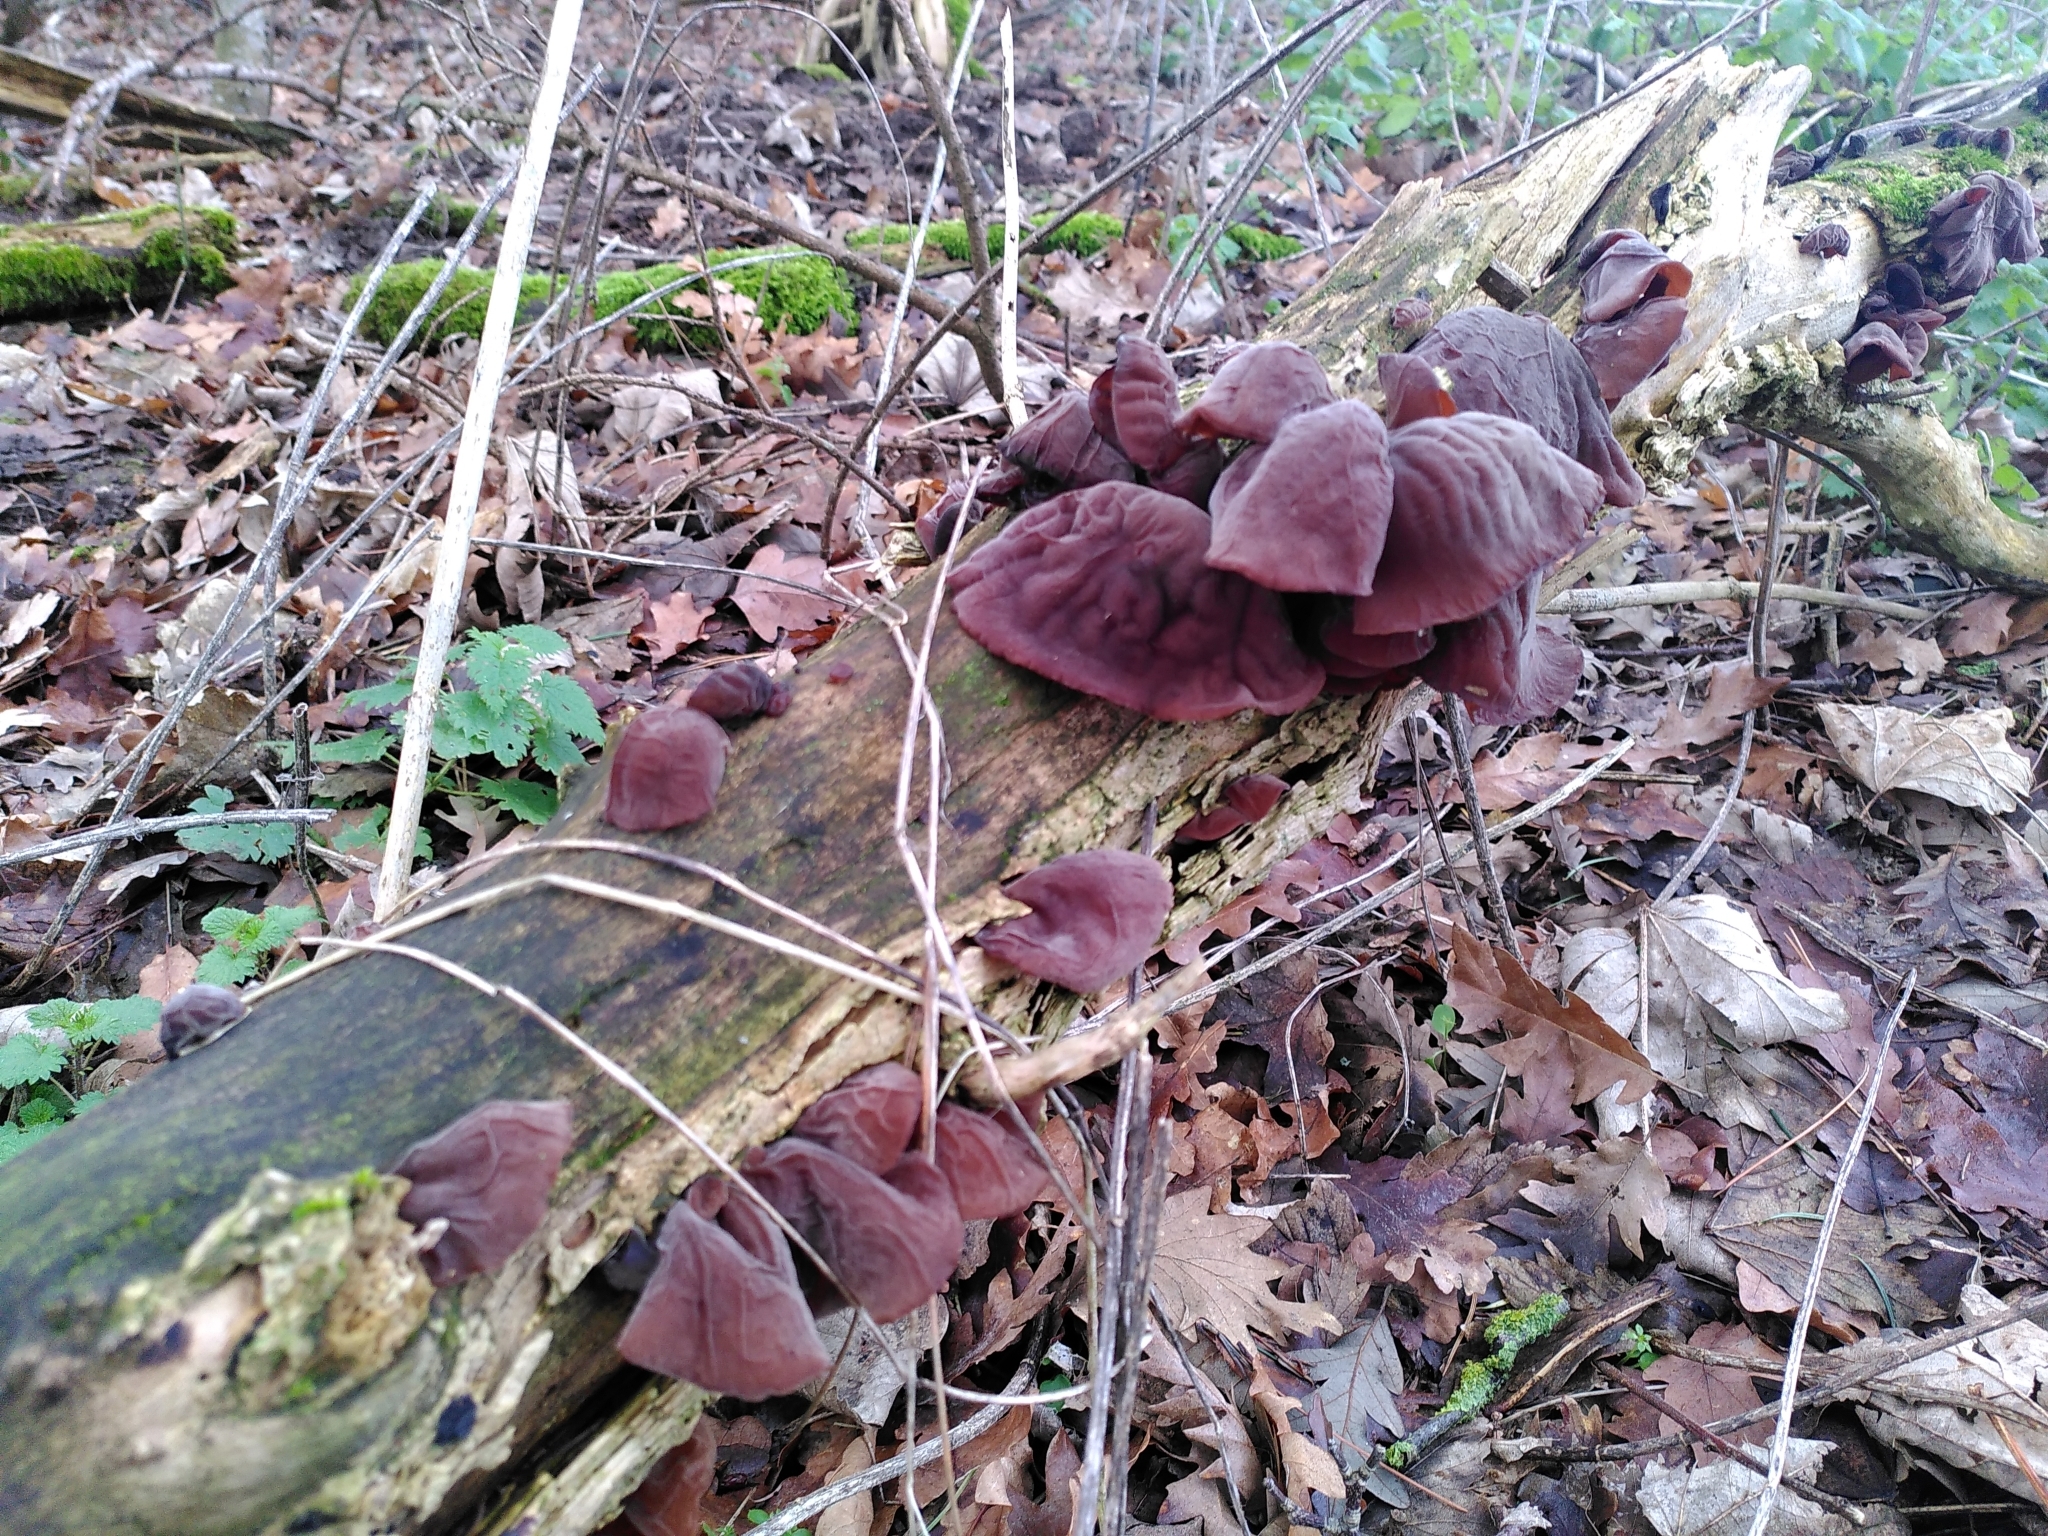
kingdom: Fungi
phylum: Basidiomycota
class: Agaricomycetes
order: Auriculariales
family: Auriculariaceae
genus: Auricularia
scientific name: Auricularia auricula-judae
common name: Jelly ear
